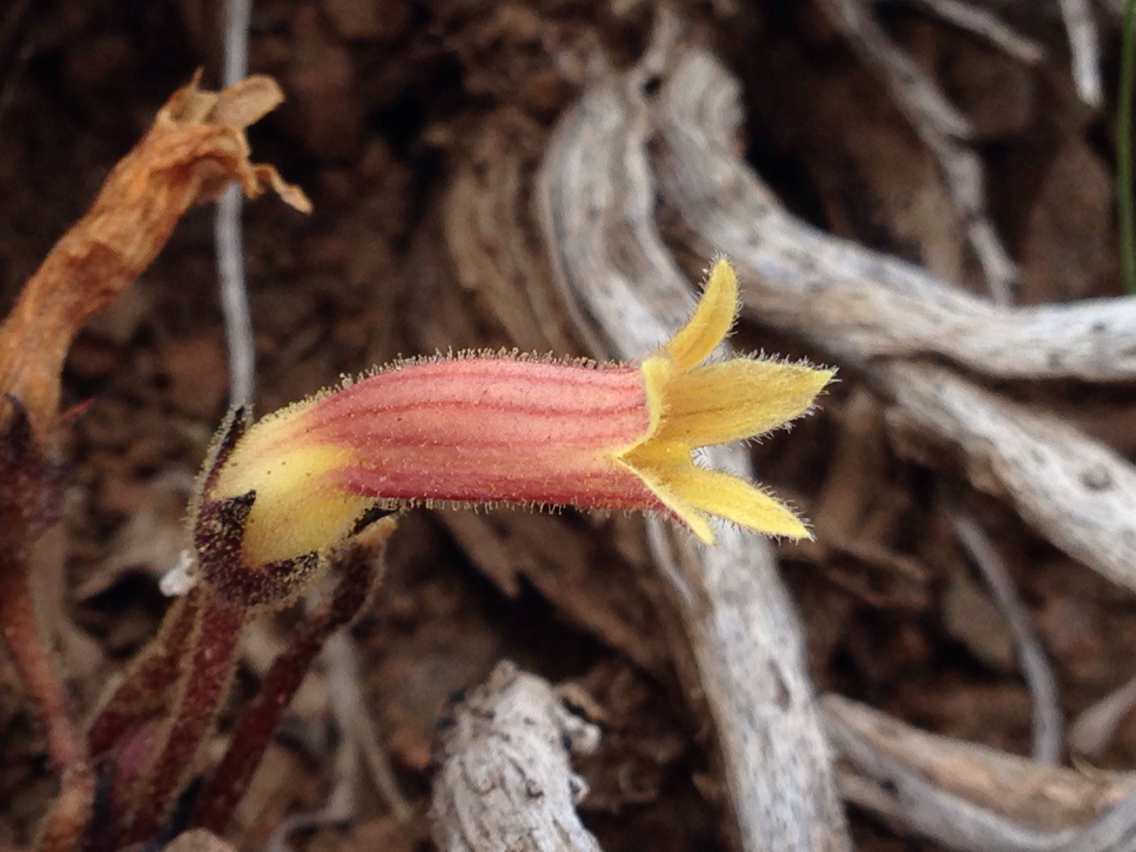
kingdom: Plantae
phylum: Tracheophyta
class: Magnoliopsida
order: Lamiales
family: Orobanchaceae
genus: Aphyllon
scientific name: Aphyllon franciscanum
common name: San francisco broomrape
